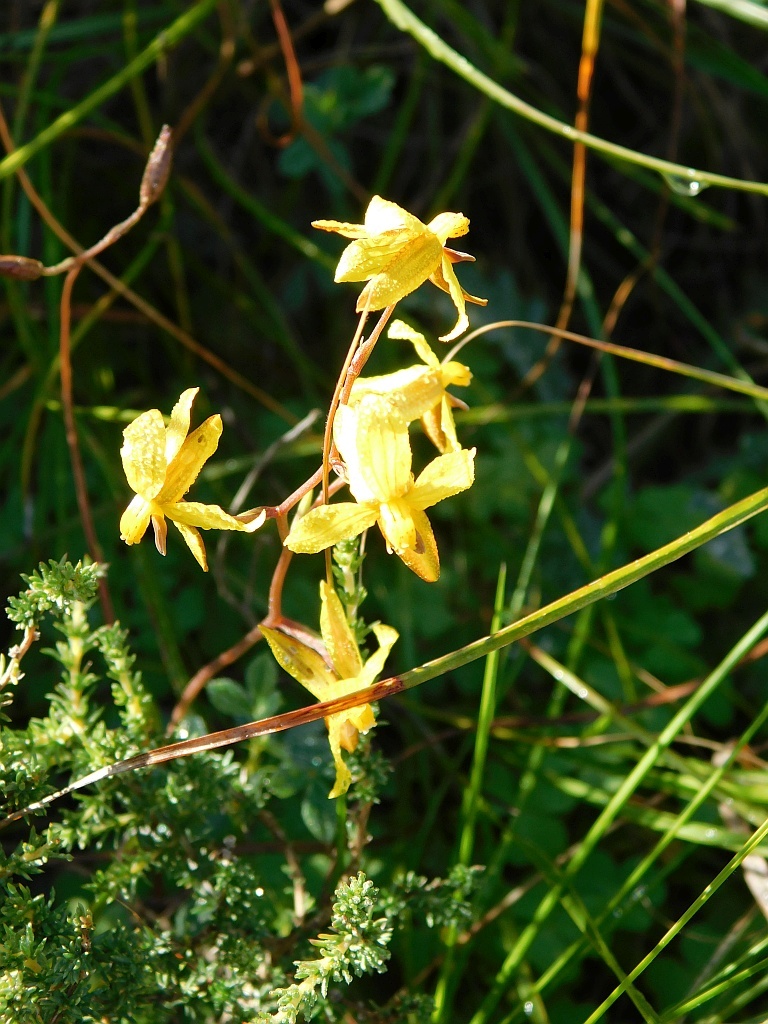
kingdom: Plantae
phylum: Tracheophyta
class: Liliopsida
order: Asparagales
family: Tecophilaeaceae
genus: Cyanella
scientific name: Cyanella lutea
